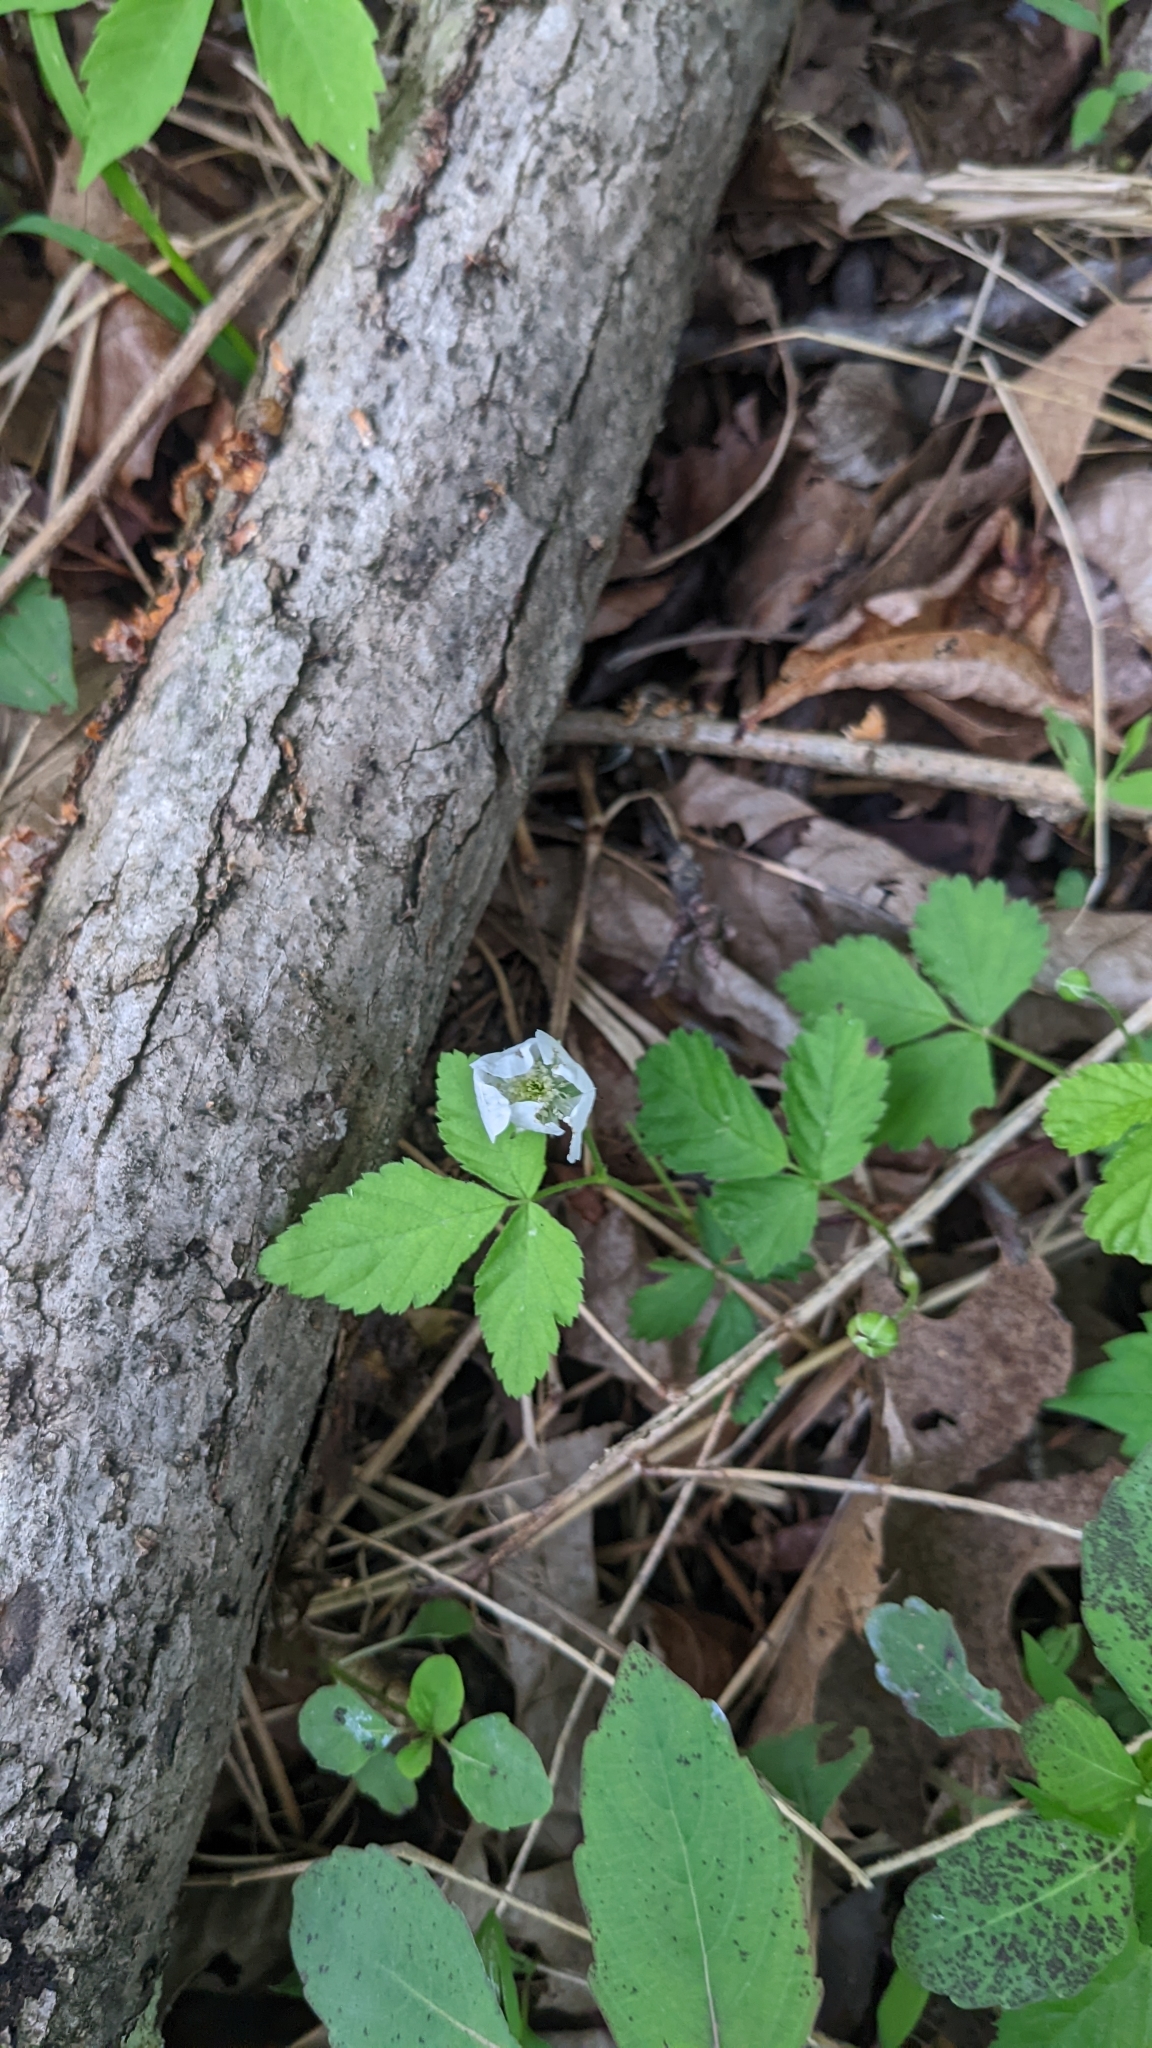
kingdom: Plantae
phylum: Tracheophyta
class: Magnoliopsida
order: Rosales
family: Rosaceae
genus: Rubus
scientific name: Rubus flagellaris
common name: American dewberry
